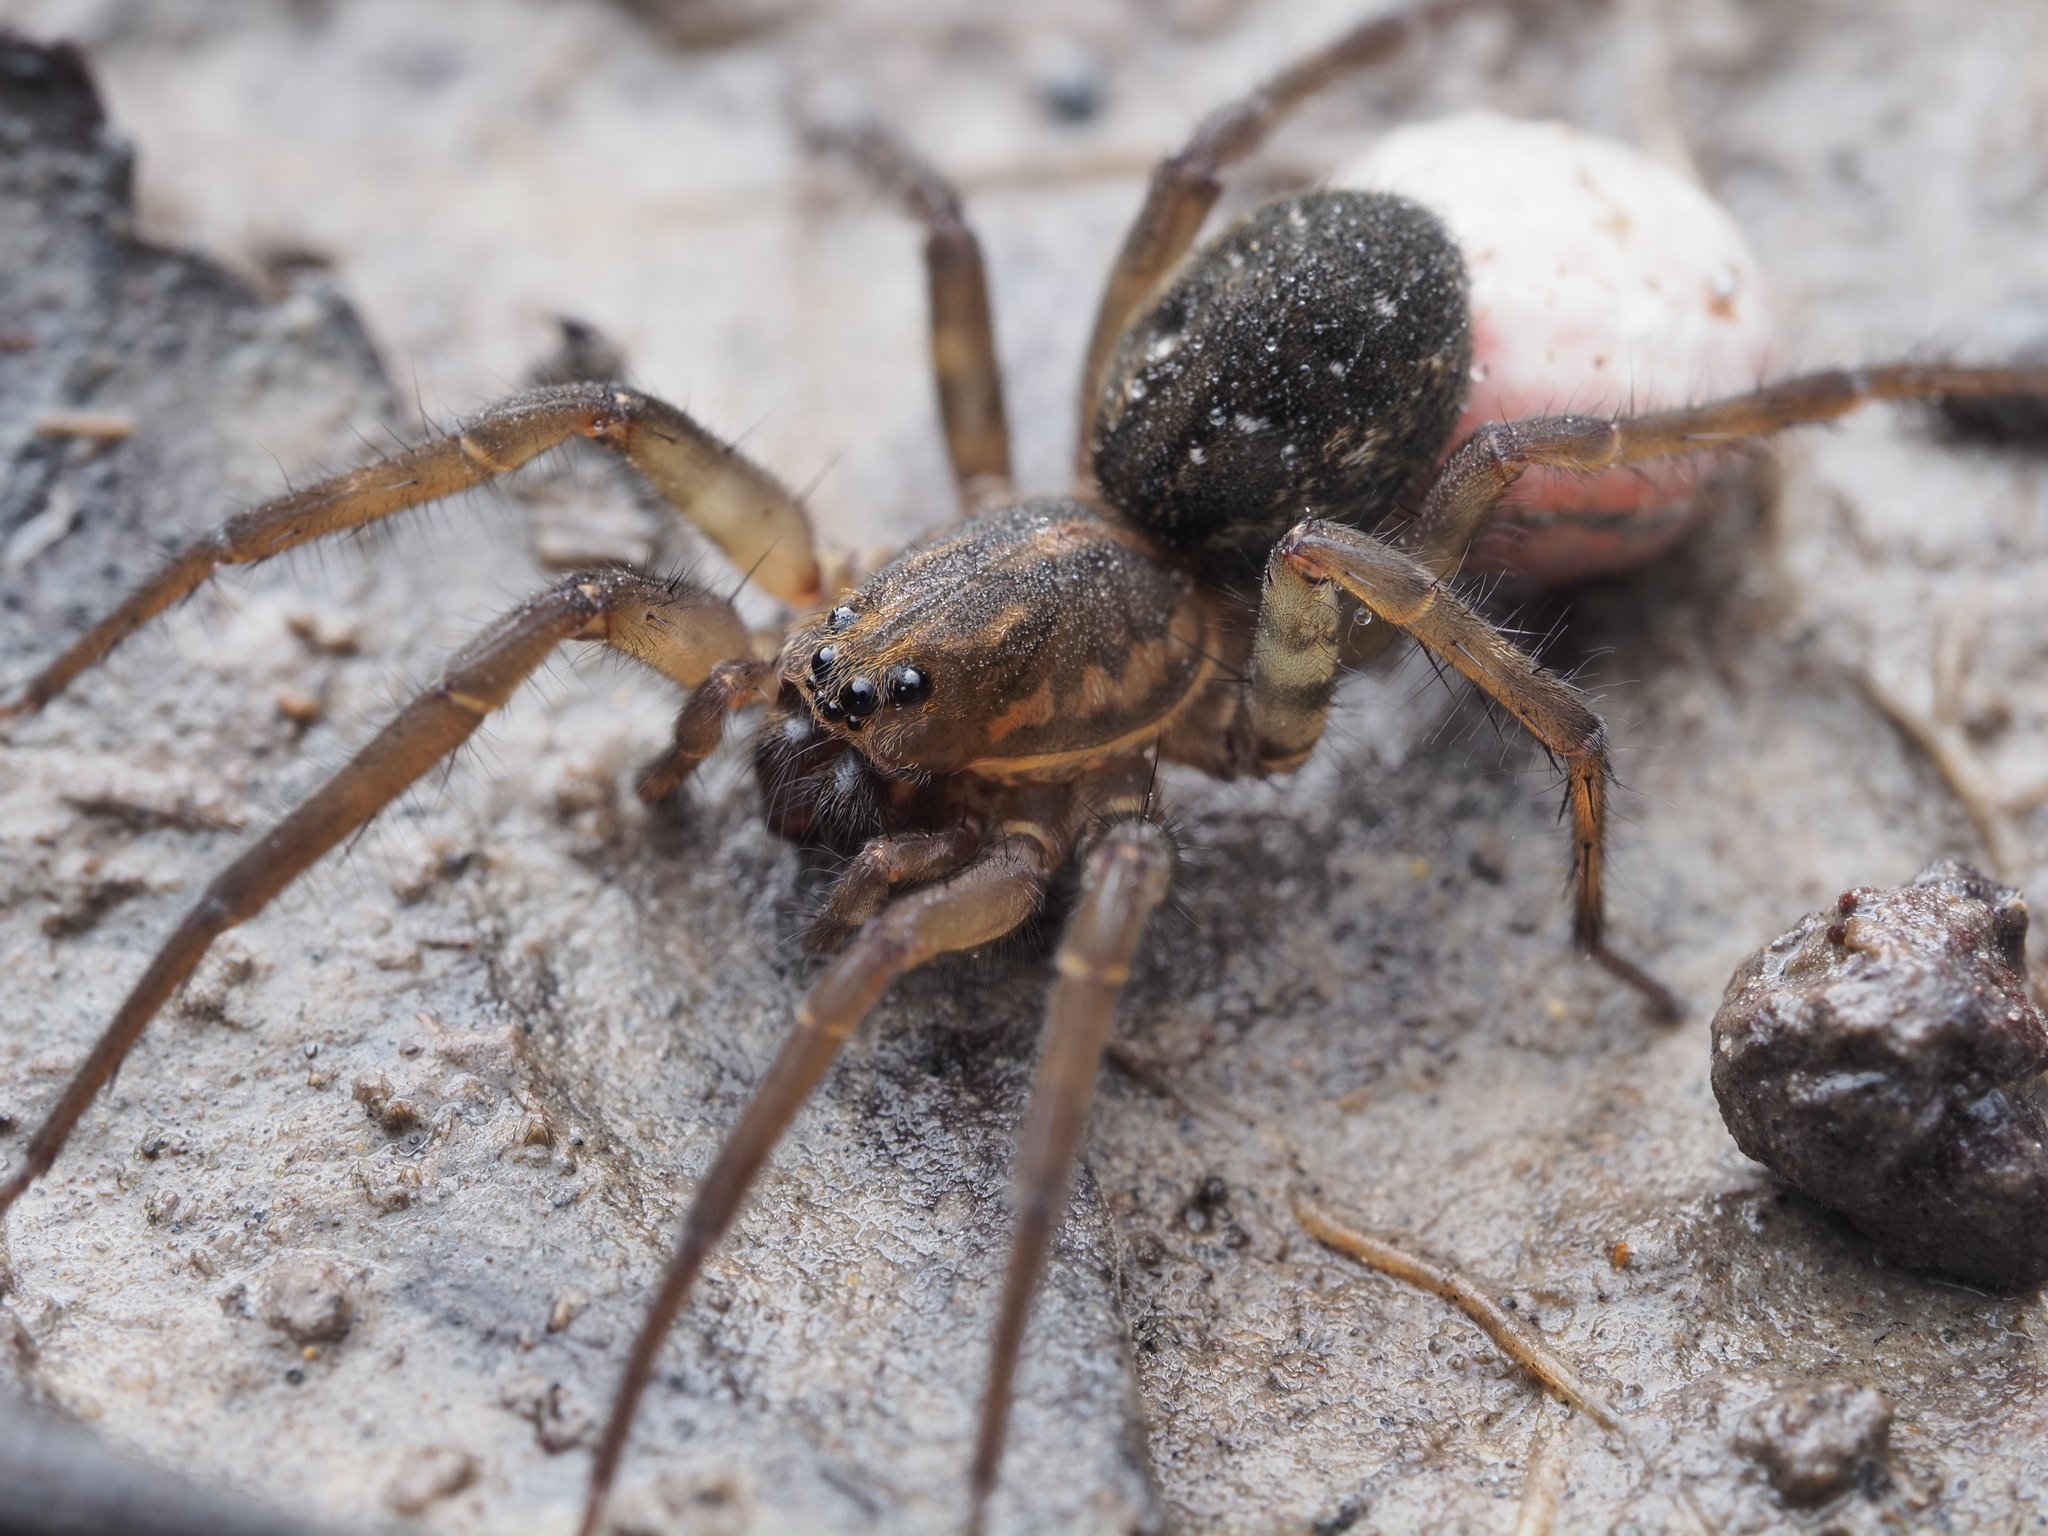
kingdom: Animalia
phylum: Arthropoda
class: Arachnida
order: Araneae
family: Lycosidae
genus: Allotrochosina
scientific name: Allotrochosina schauinslandi
